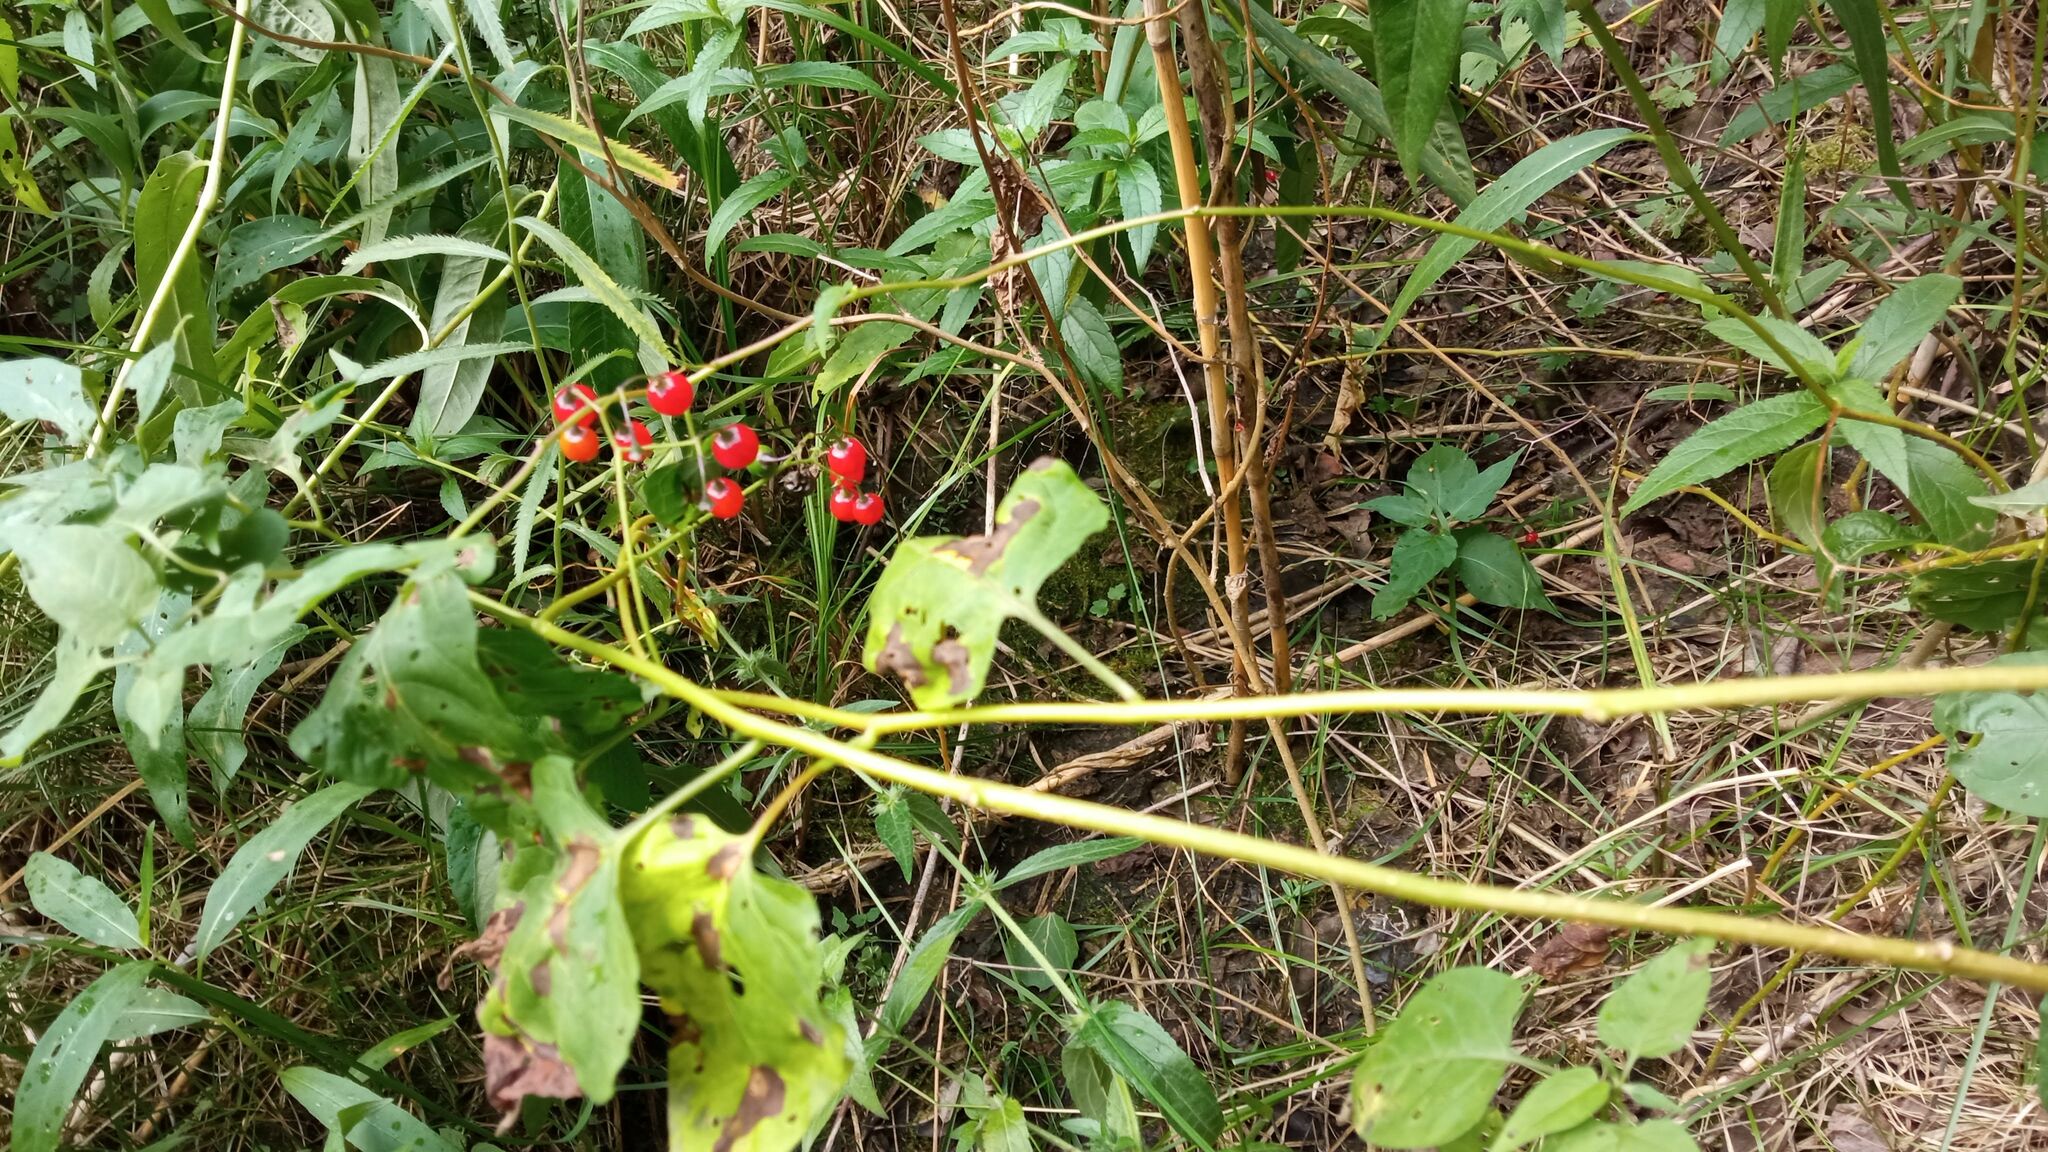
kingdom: Plantae
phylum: Tracheophyta
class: Magnoliopsida
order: Solanales
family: Solanaceae
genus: Solanum
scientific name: Solanum dulcamara
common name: Climbing nightshade
